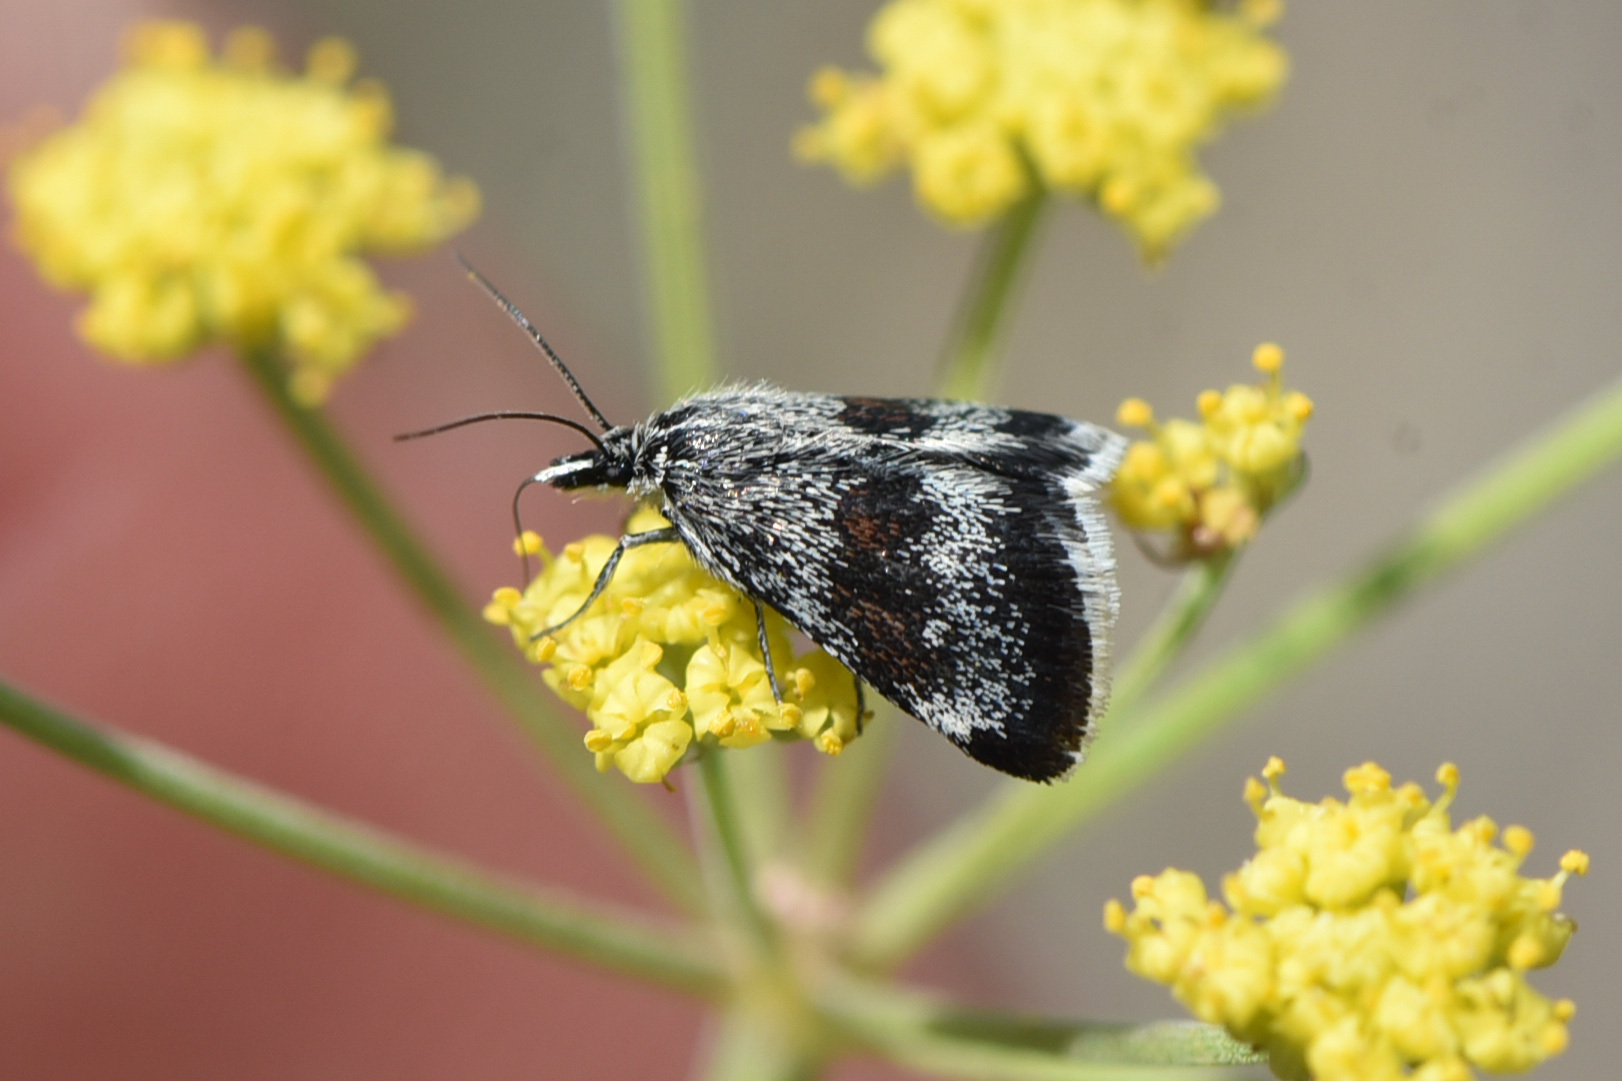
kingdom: Animalia
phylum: Arthropoda
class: Insecta
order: Lepidoptera
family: Crambidae
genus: Anatralata
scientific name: Anatralata versicolor
